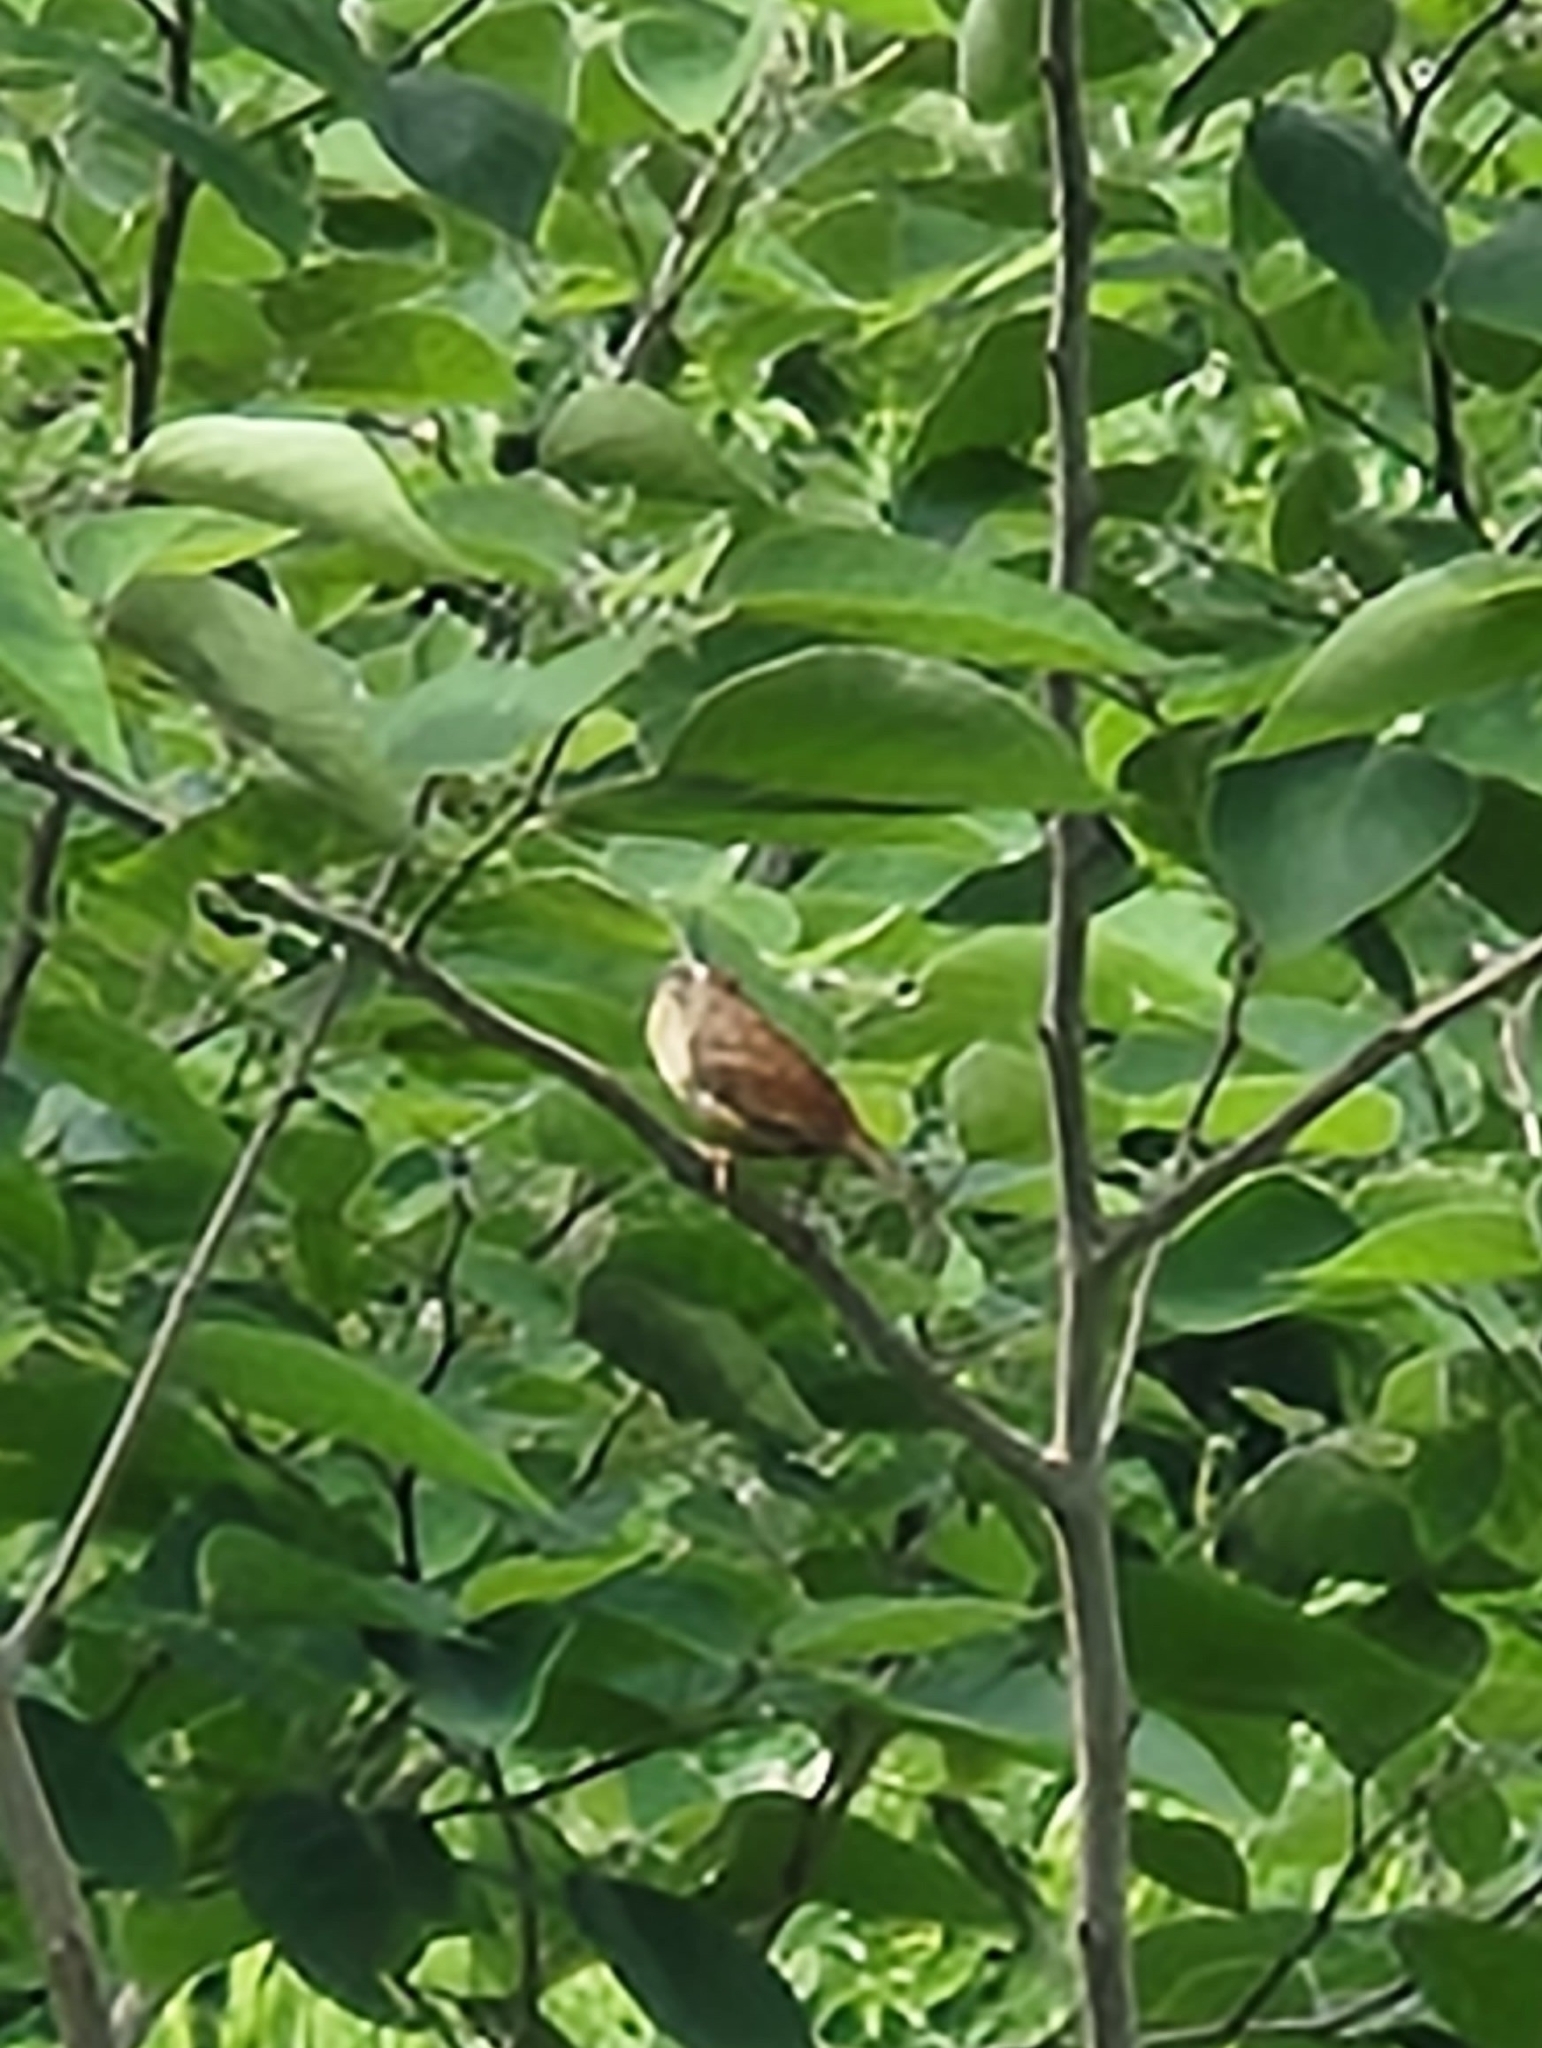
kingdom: Animalia
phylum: Chordata
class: Aves
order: Passeriformes
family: Troglodytidae
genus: Thryothorus
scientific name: Thryothorus ludovicianus
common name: Carolina wren
